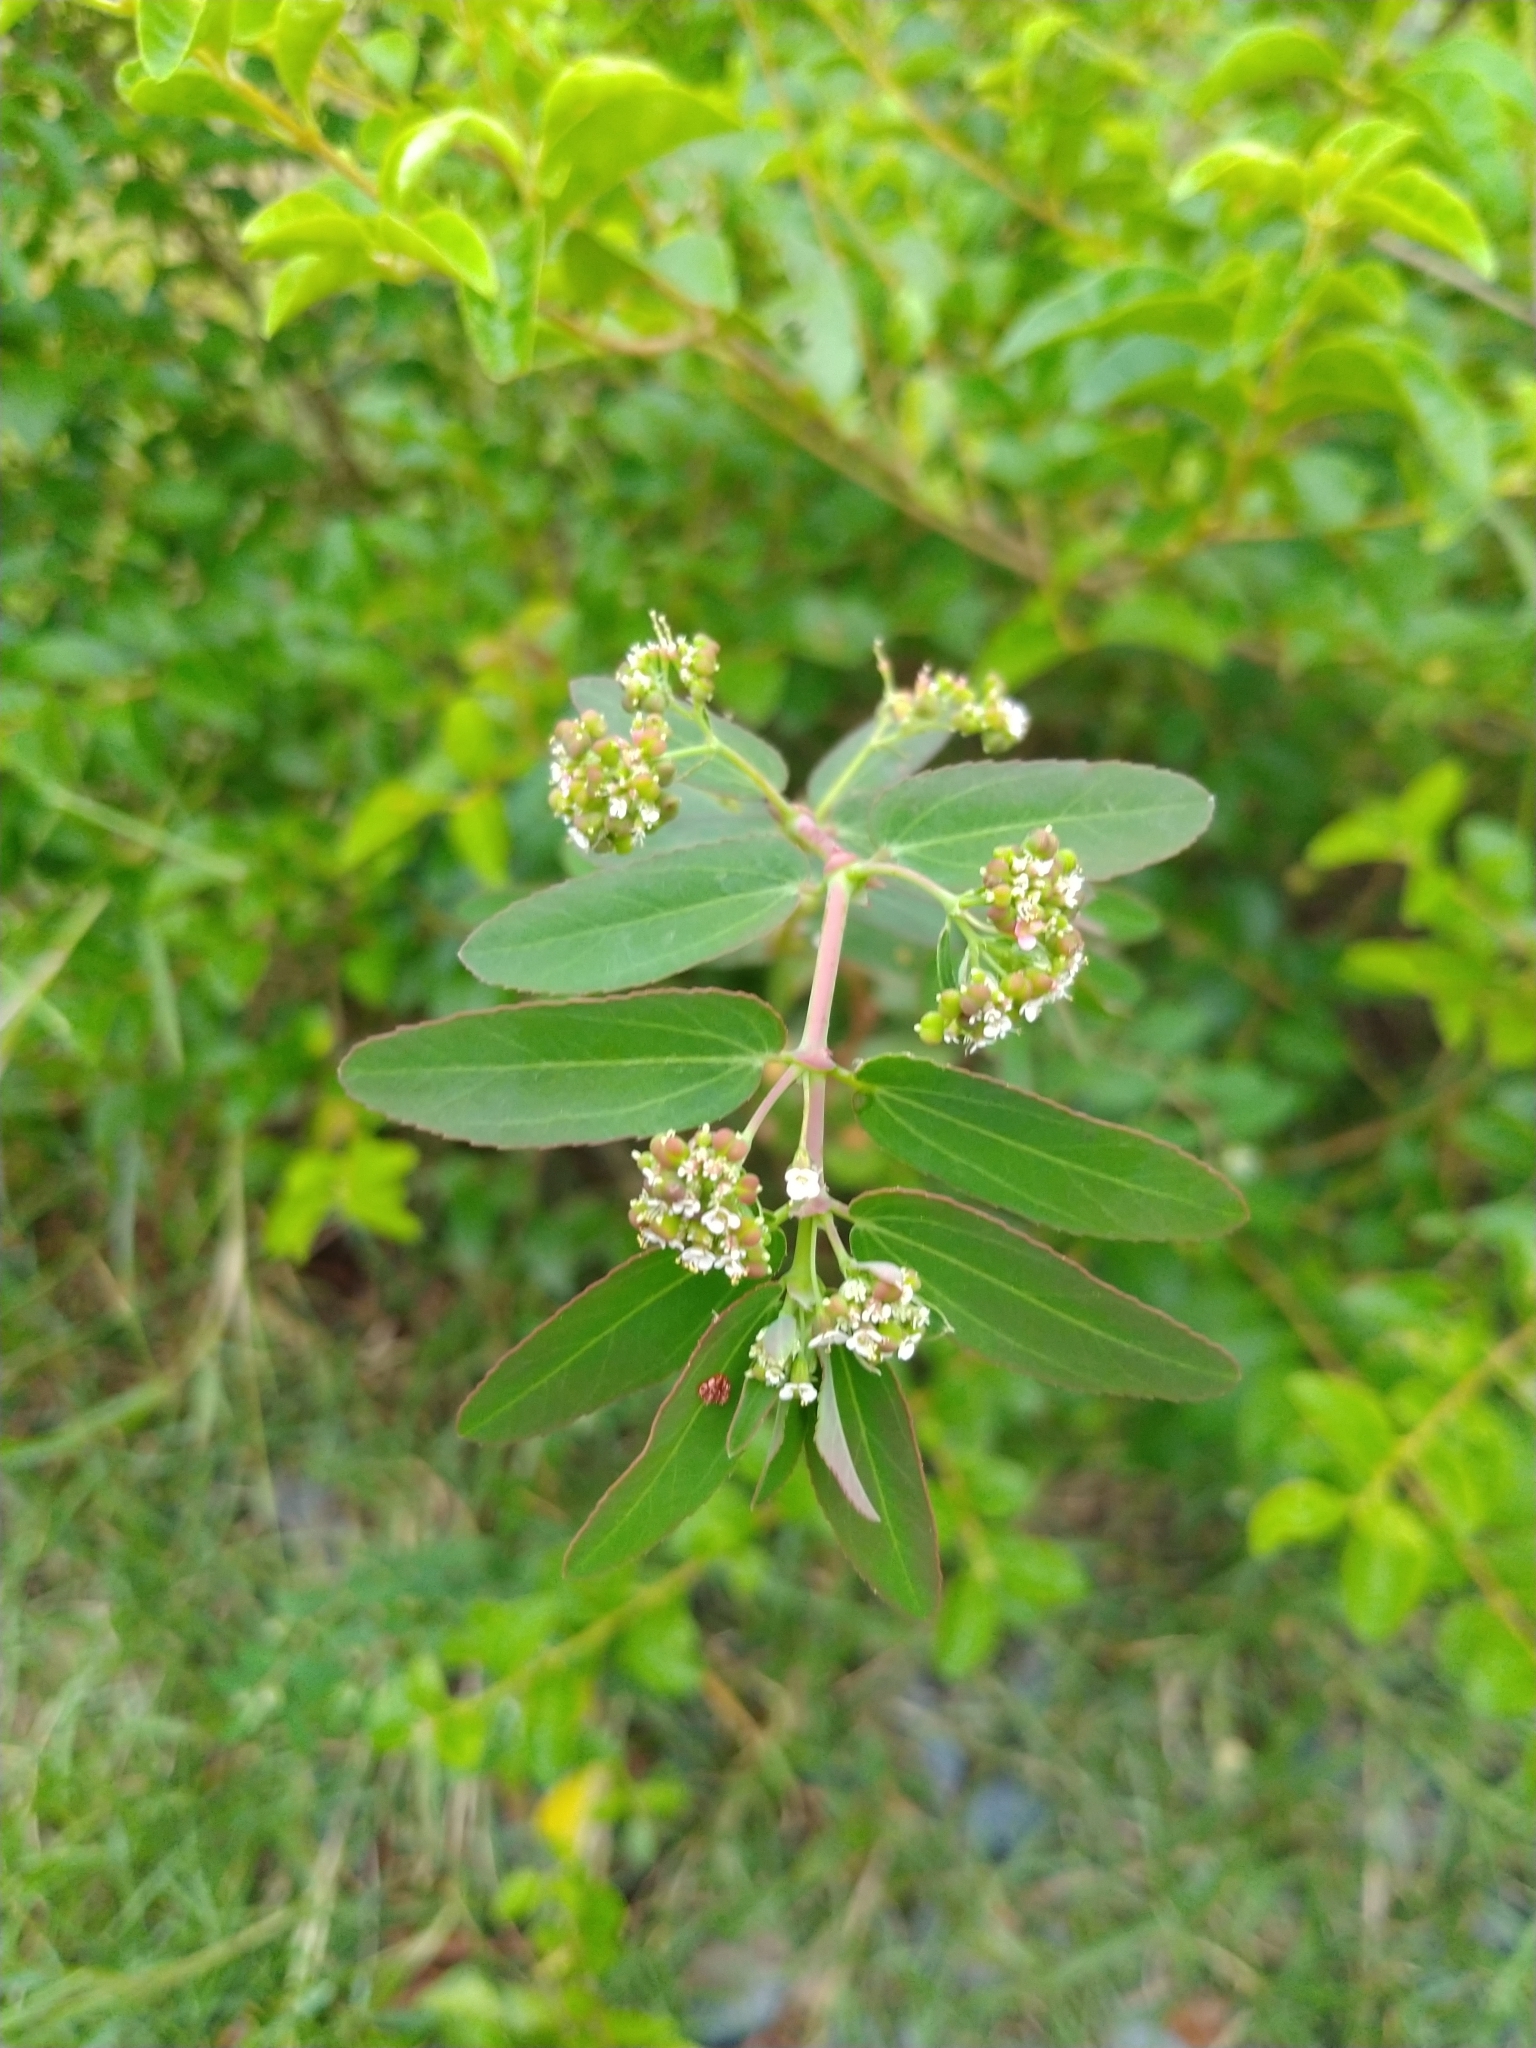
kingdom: Plantae
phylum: Tracheophyta
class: Magnoliopsida
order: Malpighiales
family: Euphorbiaceae
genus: Euphorbia
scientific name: Euphorbia hypericifolia
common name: Graceful sandmat
